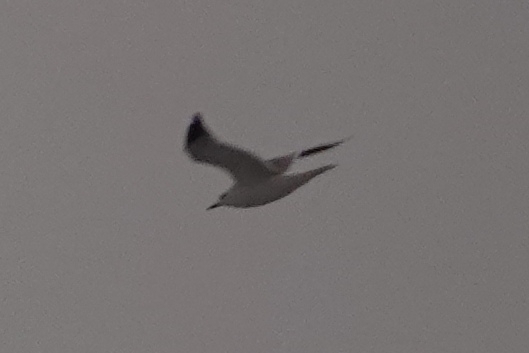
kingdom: Animalia
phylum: Chordata
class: Aves
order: Charadriiformes
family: Laridae
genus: Larus
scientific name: Larus canus
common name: Mew gull
